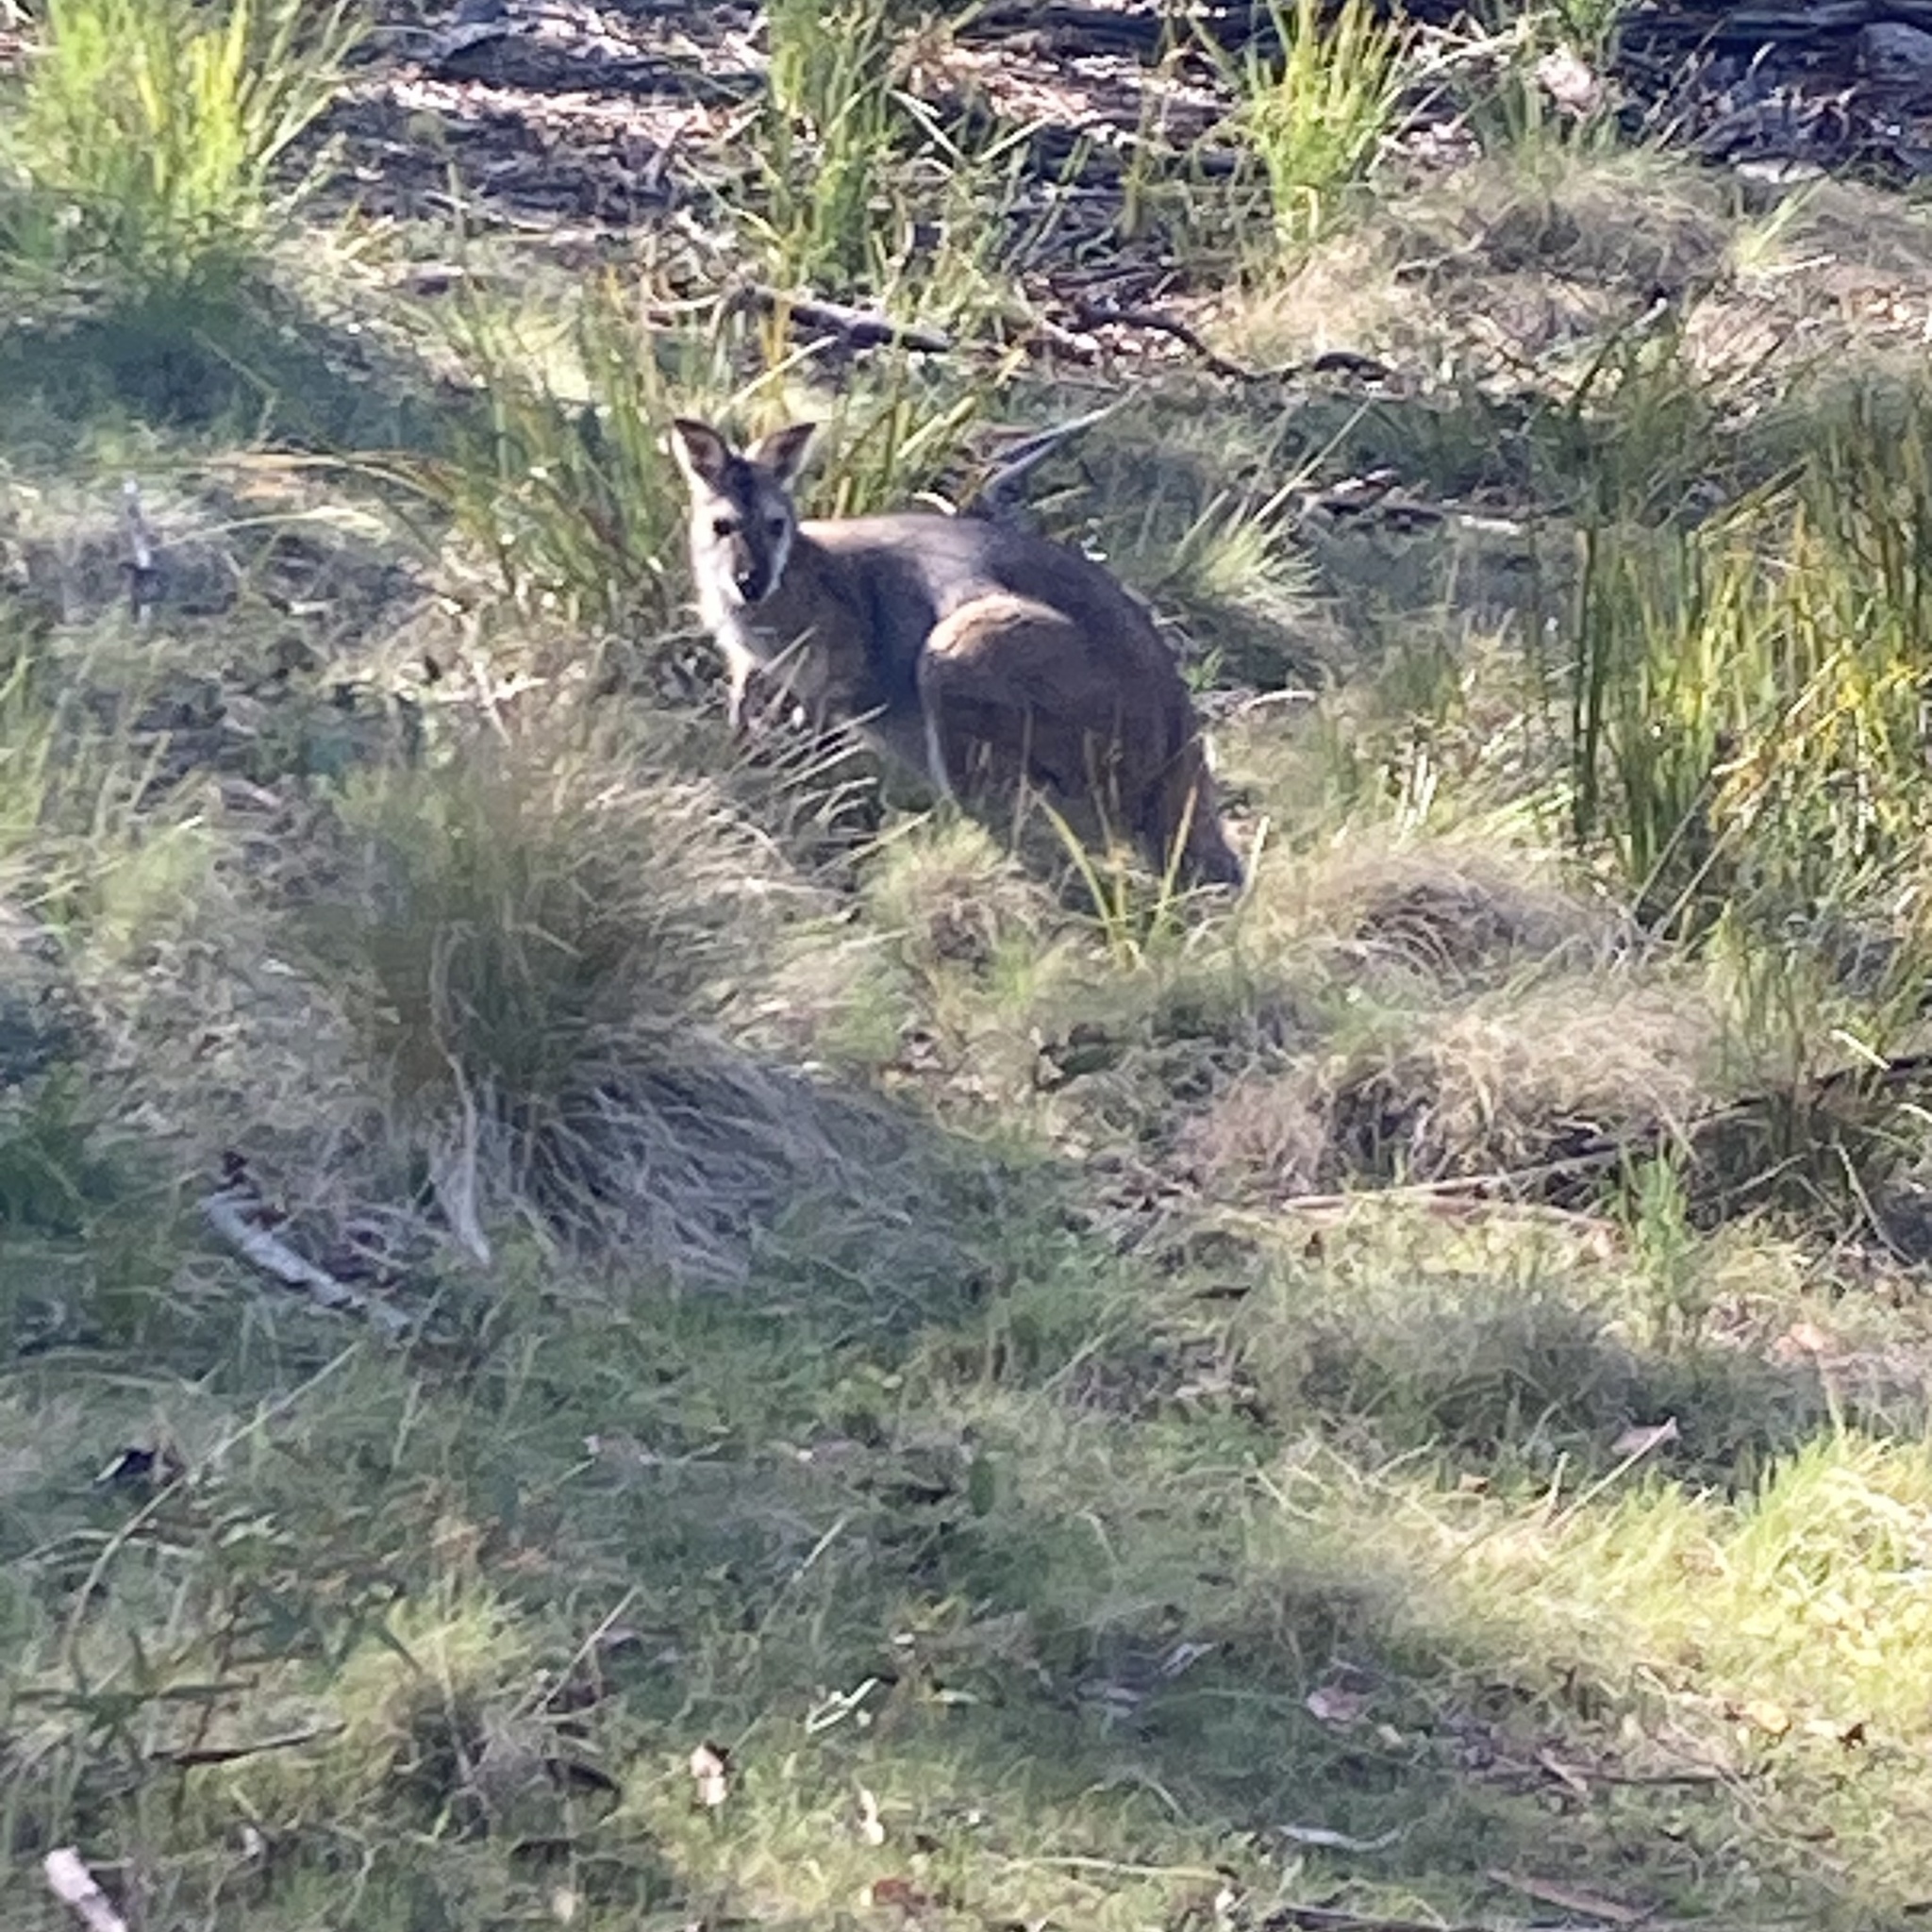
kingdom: Animalia
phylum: Chordata
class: Mammalia
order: Diprotodontia
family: Macropodidae
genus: Notamacropus
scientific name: Notamacropus rufogriseus
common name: Red-necked wallaby
